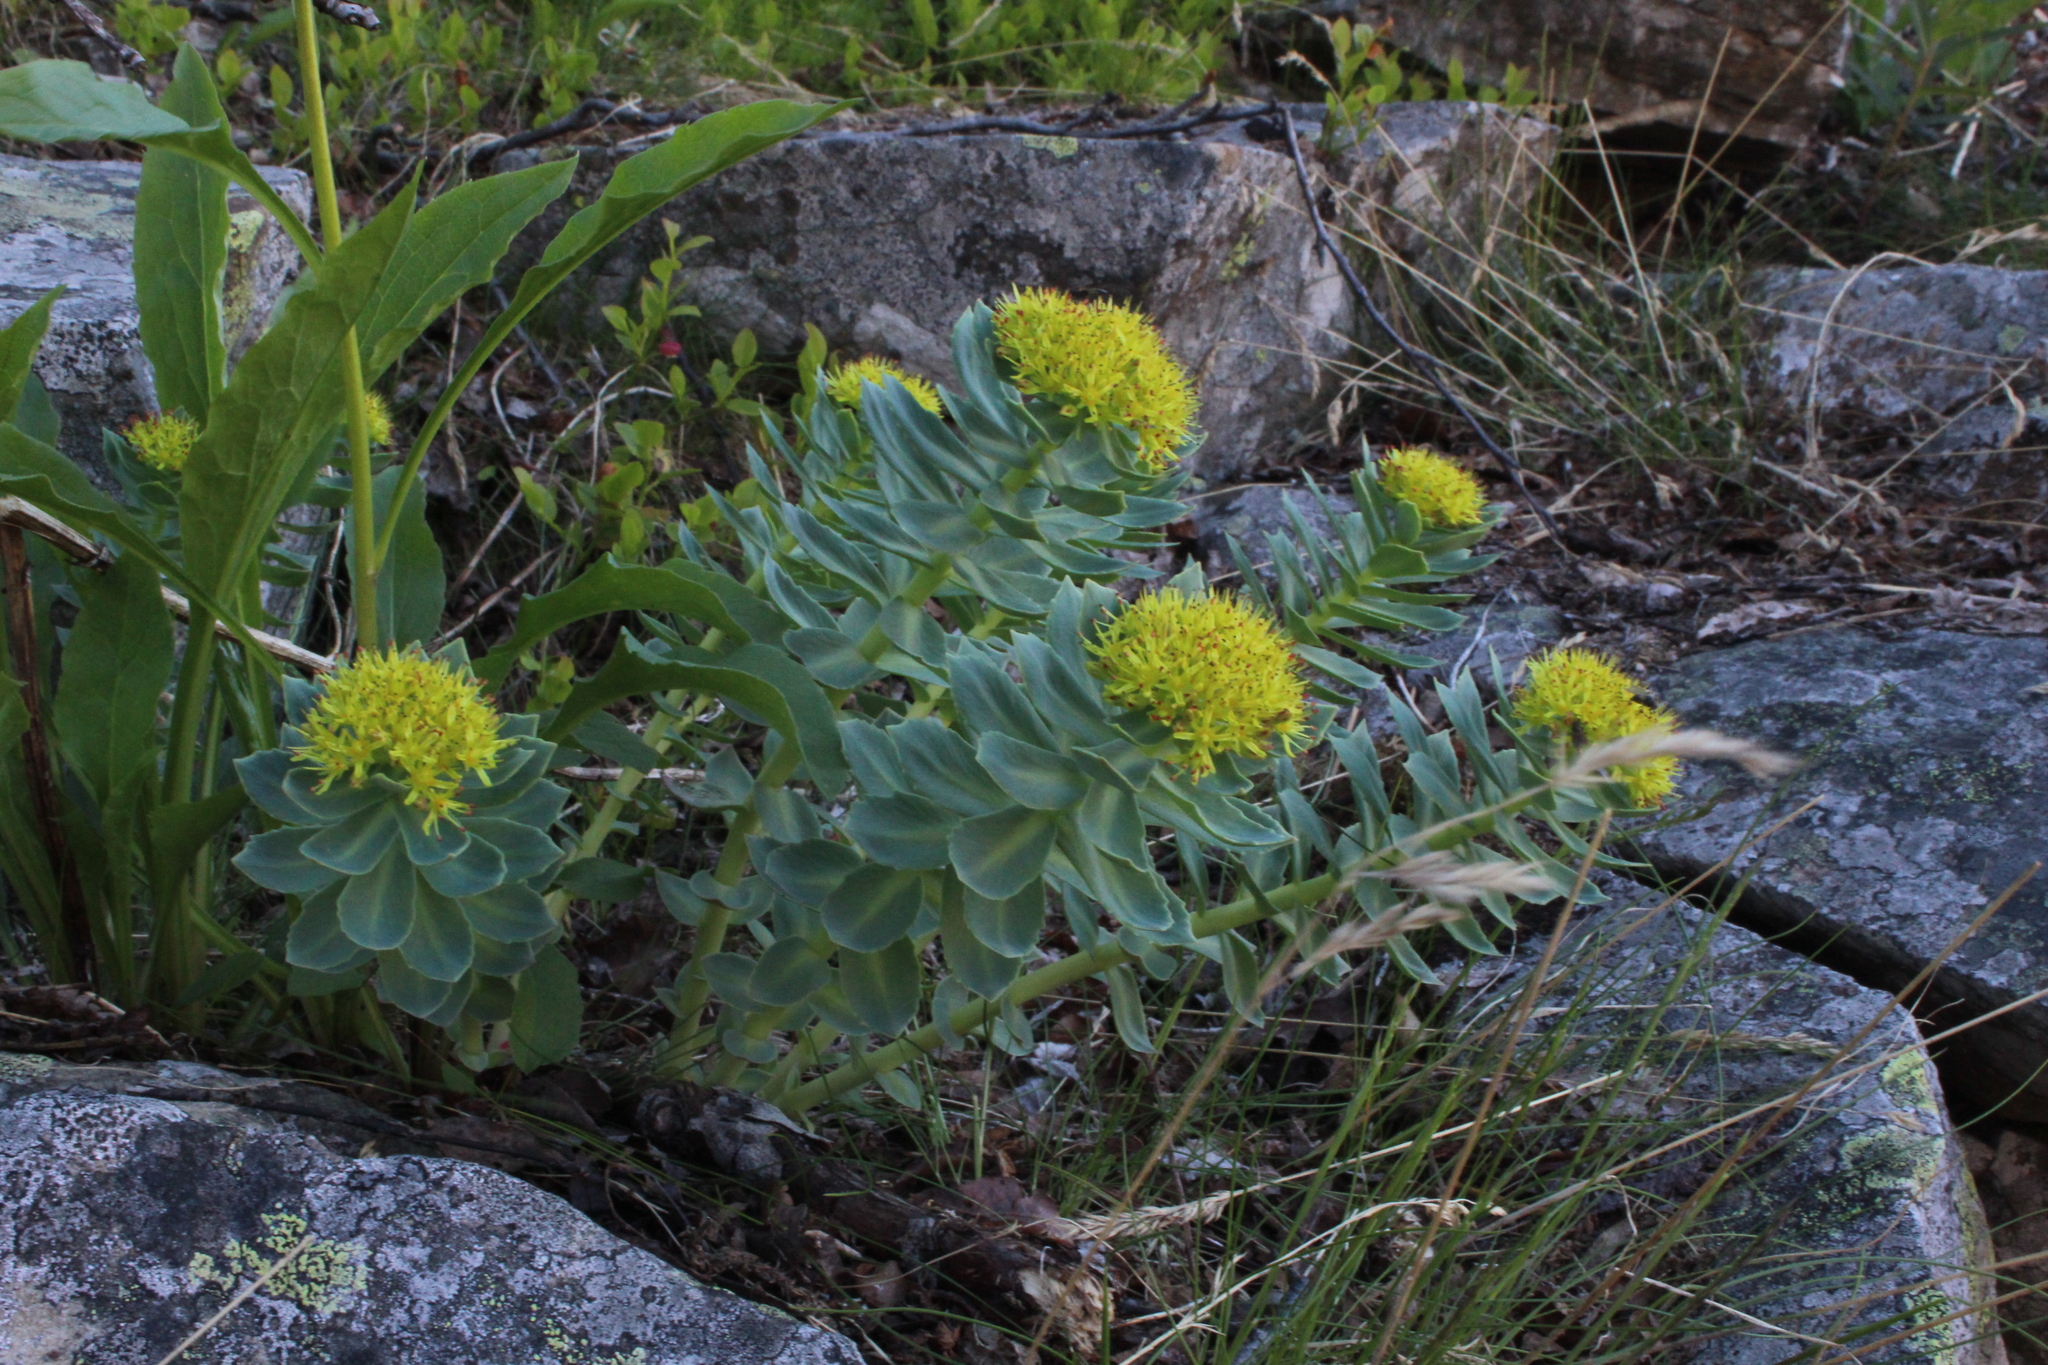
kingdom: Plantae
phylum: Tracheophyta
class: Magnoliopsida
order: Saxifragales
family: Crassulaceae
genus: Rhodiola
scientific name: Rhodiola rosea
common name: Roseroot
